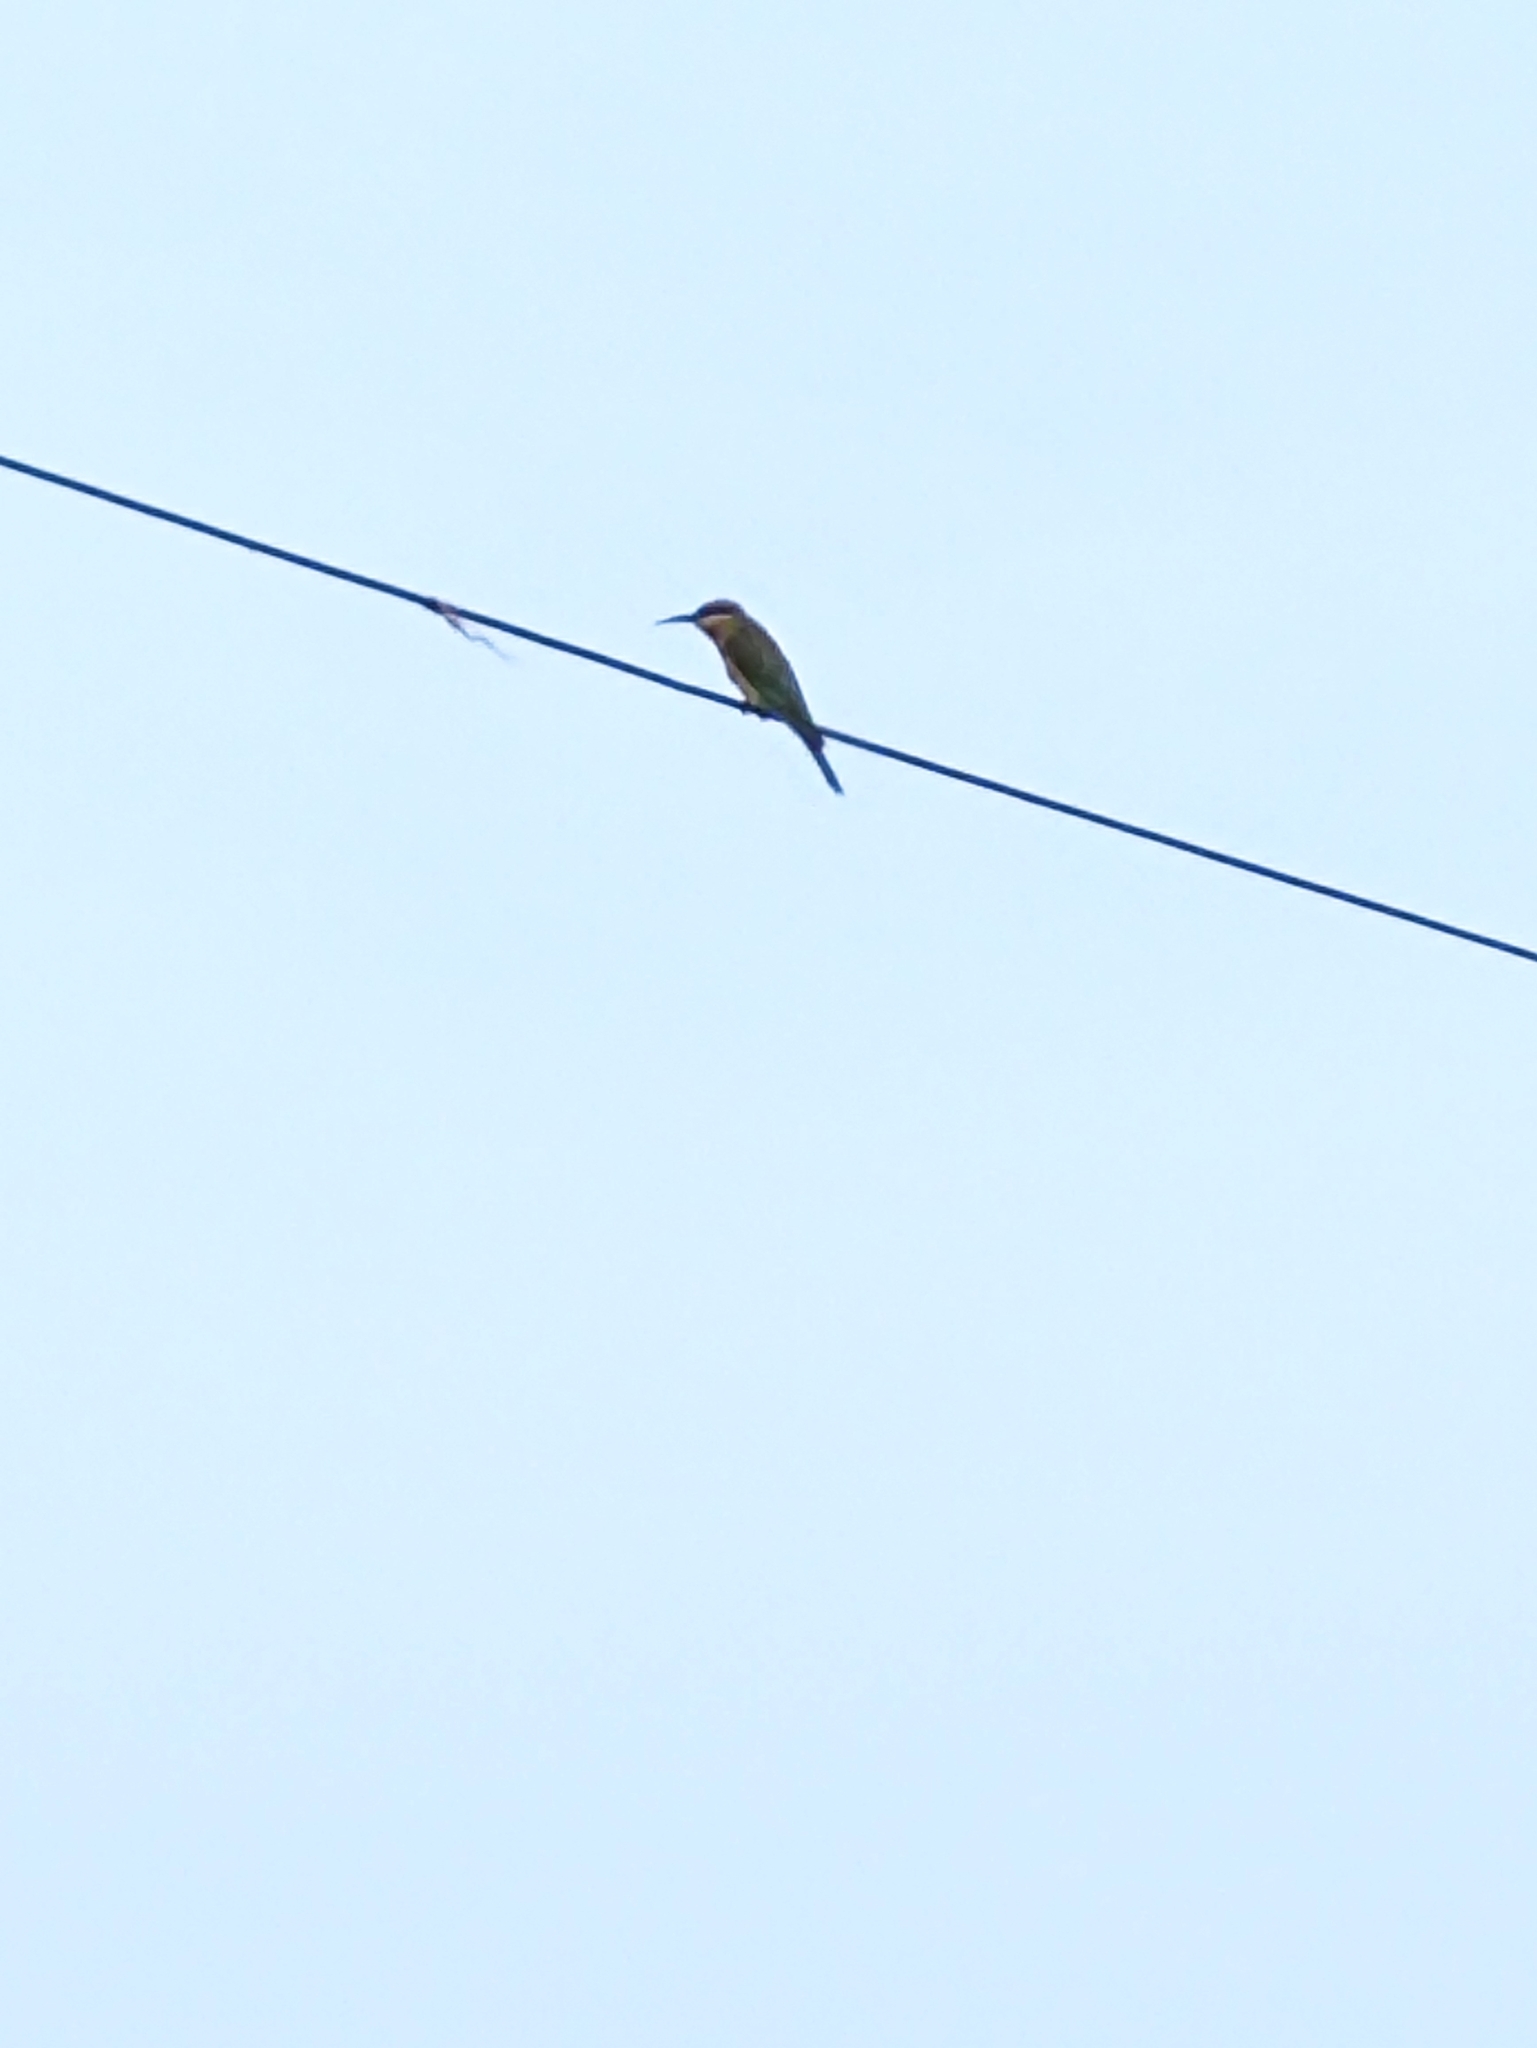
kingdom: Animalia
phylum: Chordata
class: Aves
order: Coraciiformes
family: Meropidae
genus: Merops
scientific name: Merops philippinus
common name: Blue-tailed bee-eater
